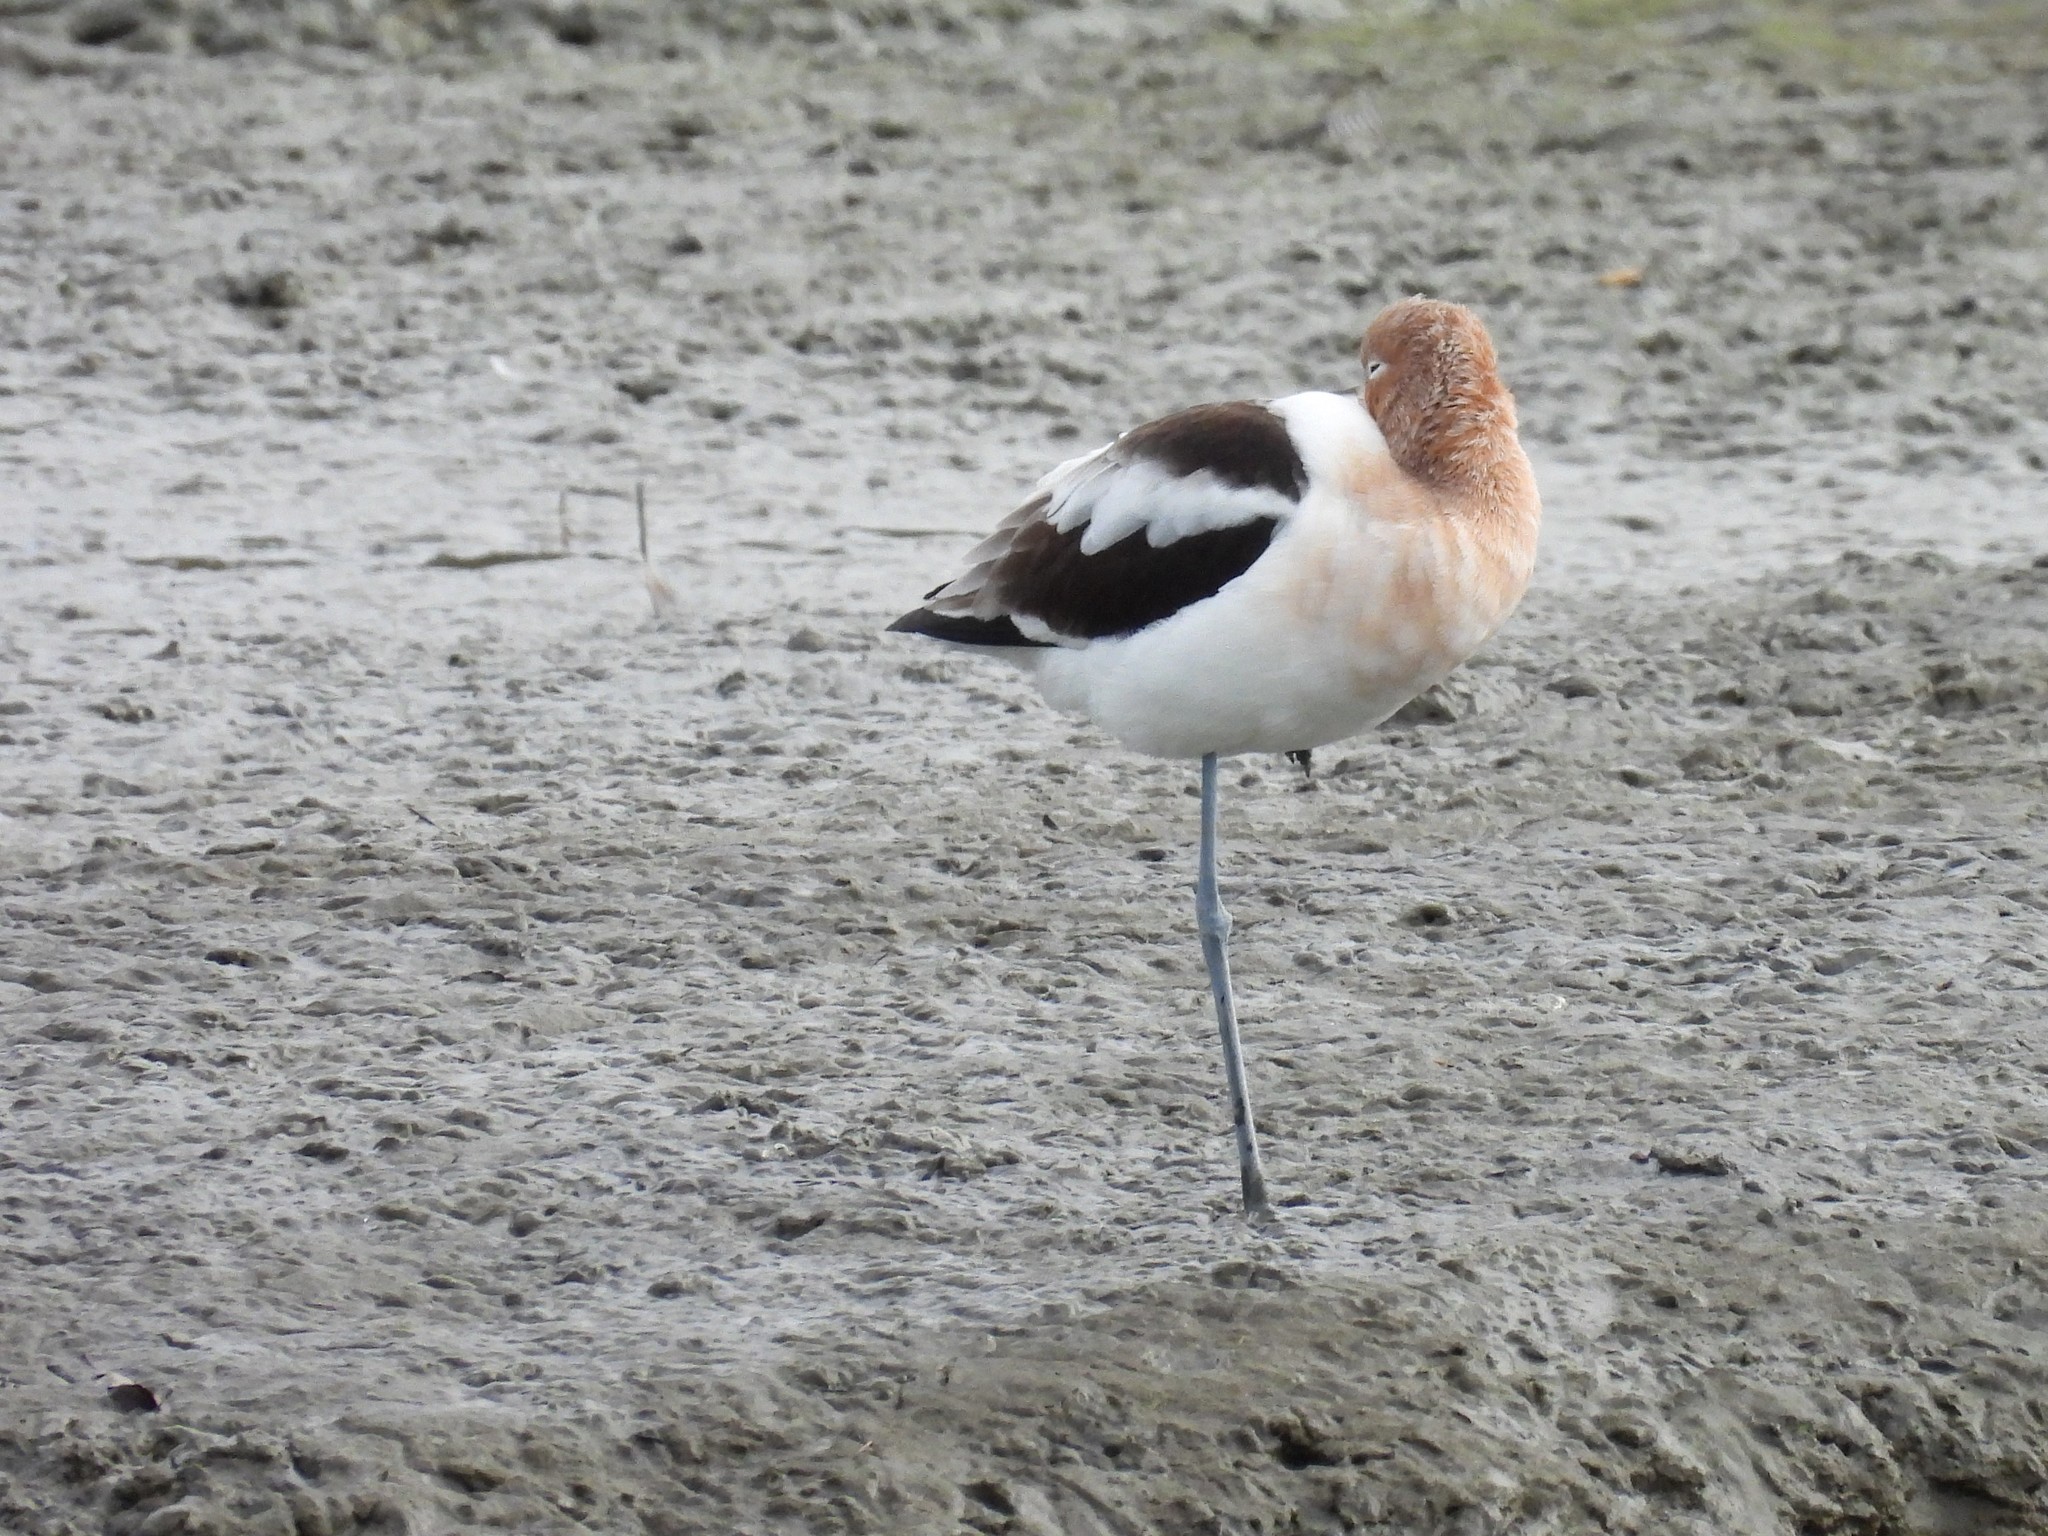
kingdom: Animalia
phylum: Chordata
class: Aves
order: Charadriiformes
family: Recurvirostridae
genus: Recurvirostra
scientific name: Recurvirostra americana
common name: American avocet
